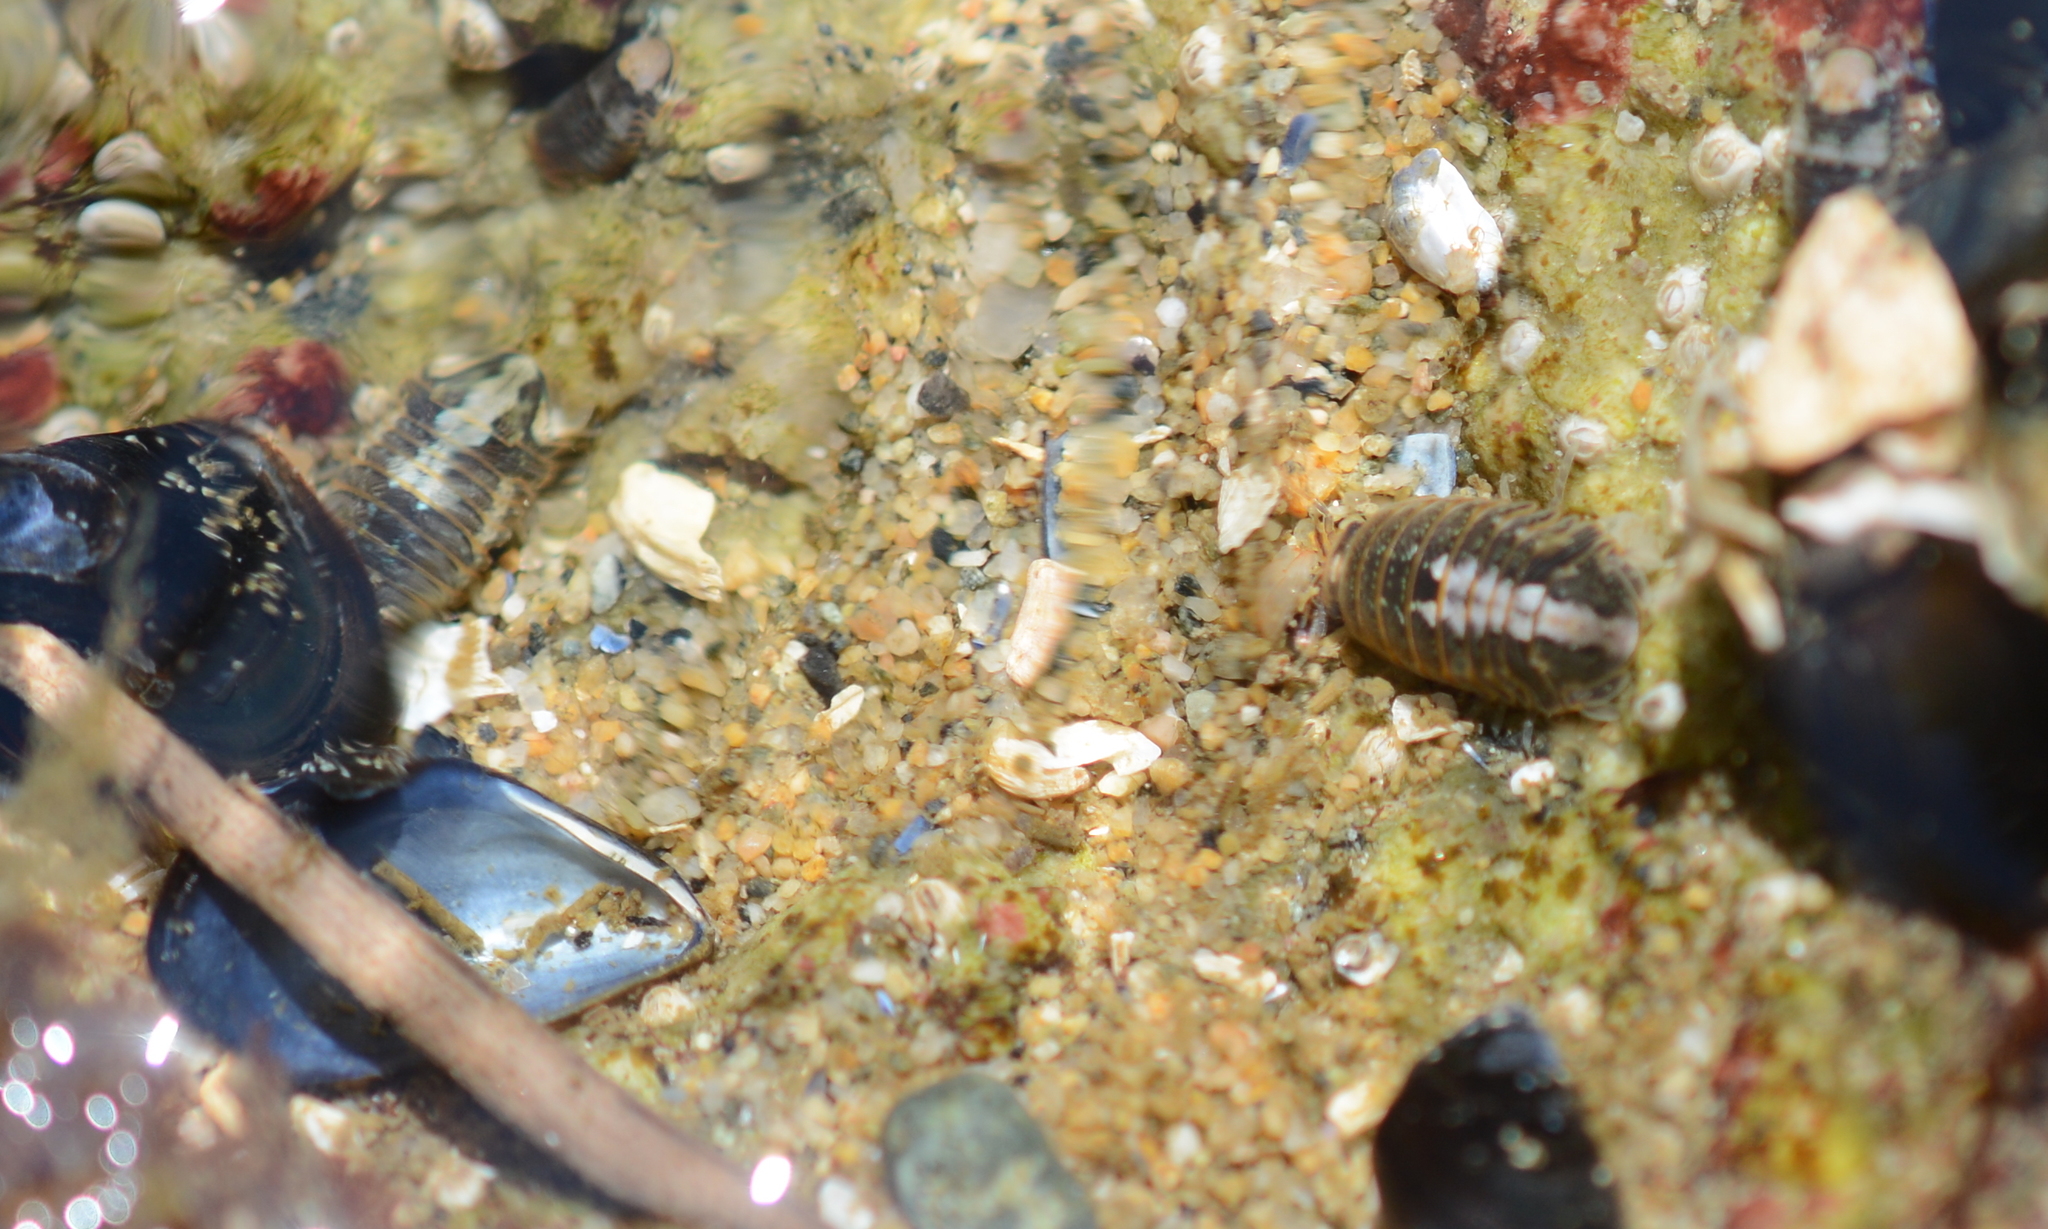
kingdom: Animalia
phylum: Arthropoda
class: Malacostraca
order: Isopoda
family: Sphaeromatidae
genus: Gnorimosphaeroma
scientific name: Gnorimosphaeroma oregonense
